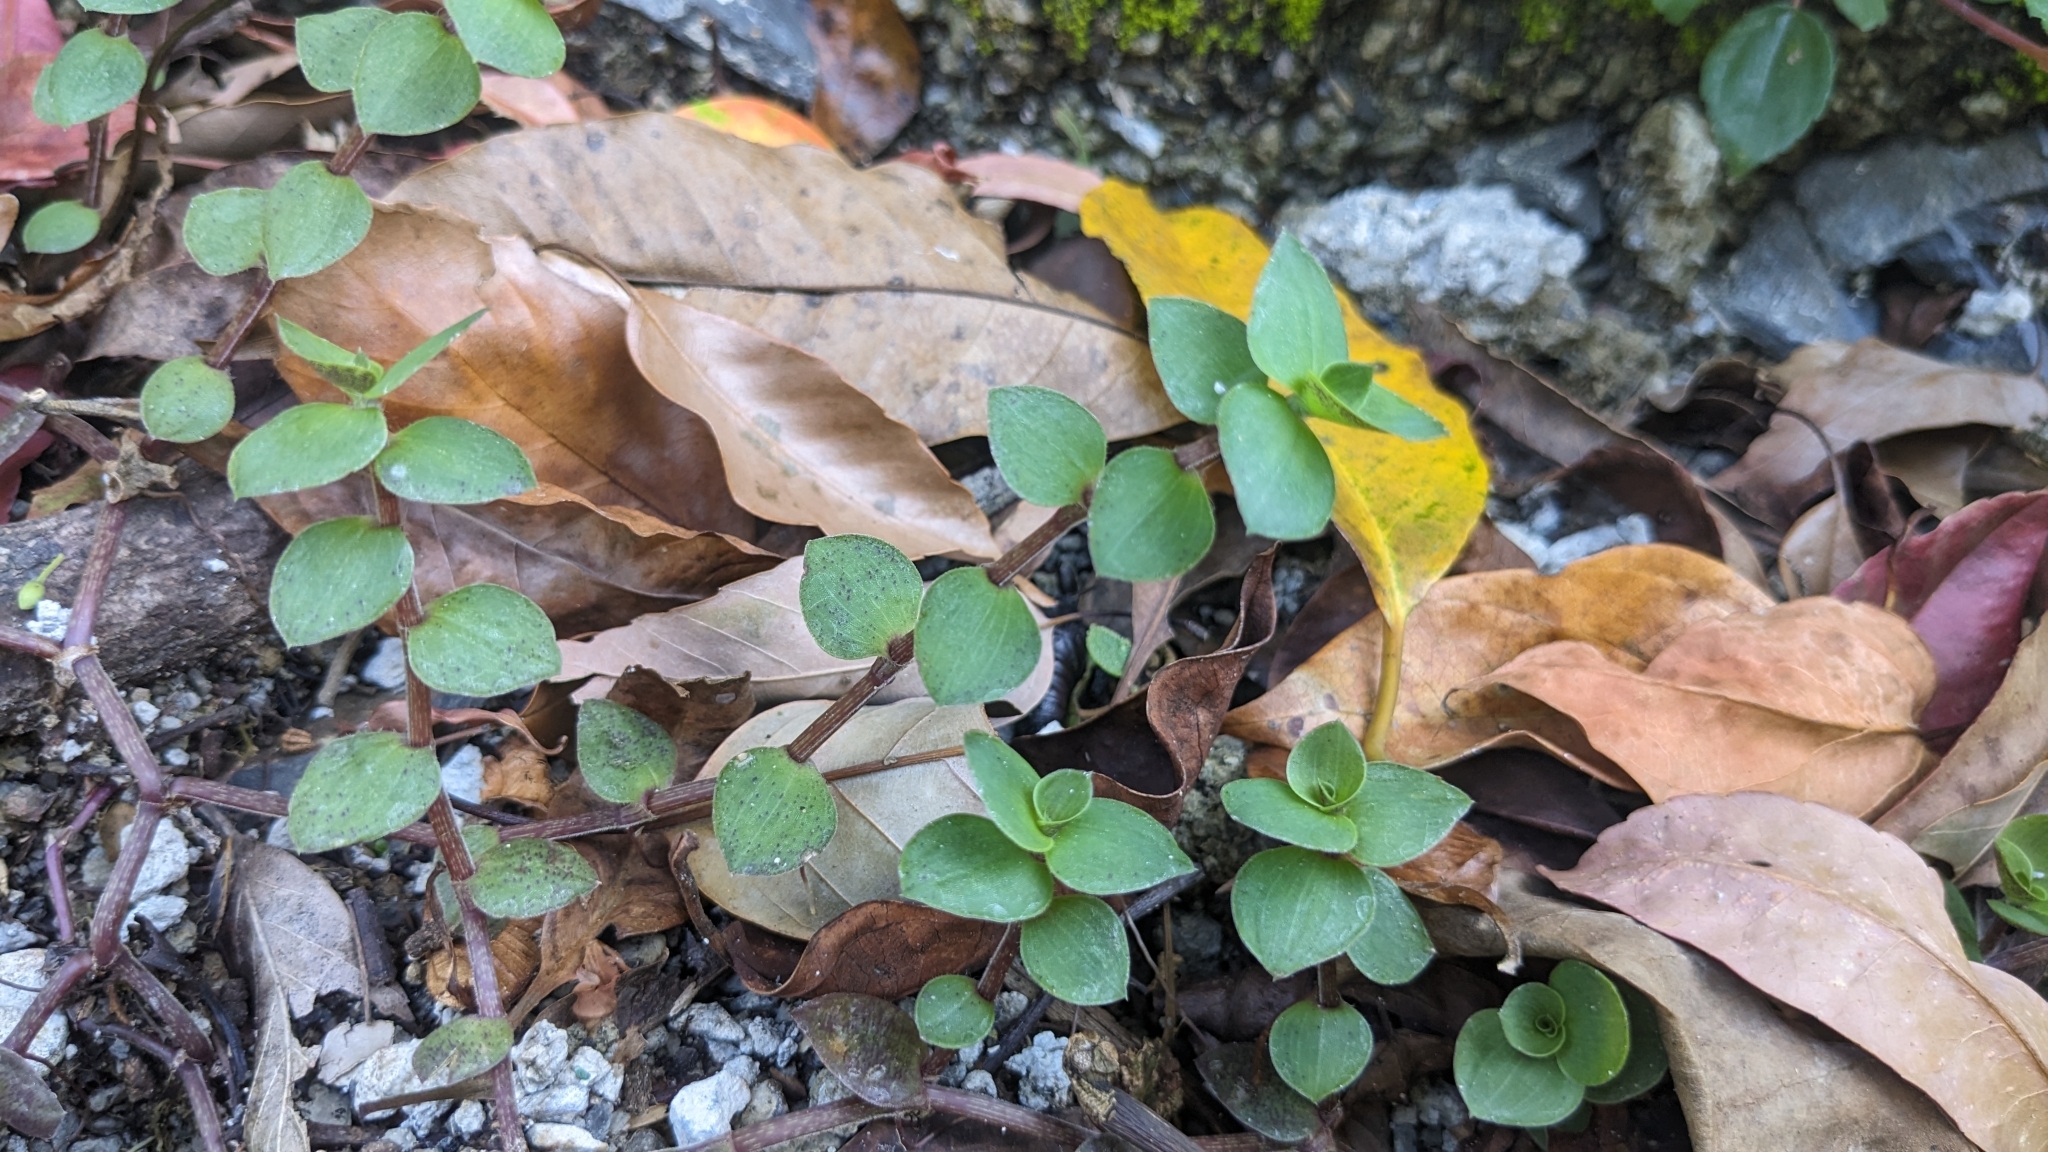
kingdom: Plantae
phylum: Tracheophyta
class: Liliopsida
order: Commelinales
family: Commelinaceae
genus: Callisia
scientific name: Callisia repens
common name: Creeping inchplant
